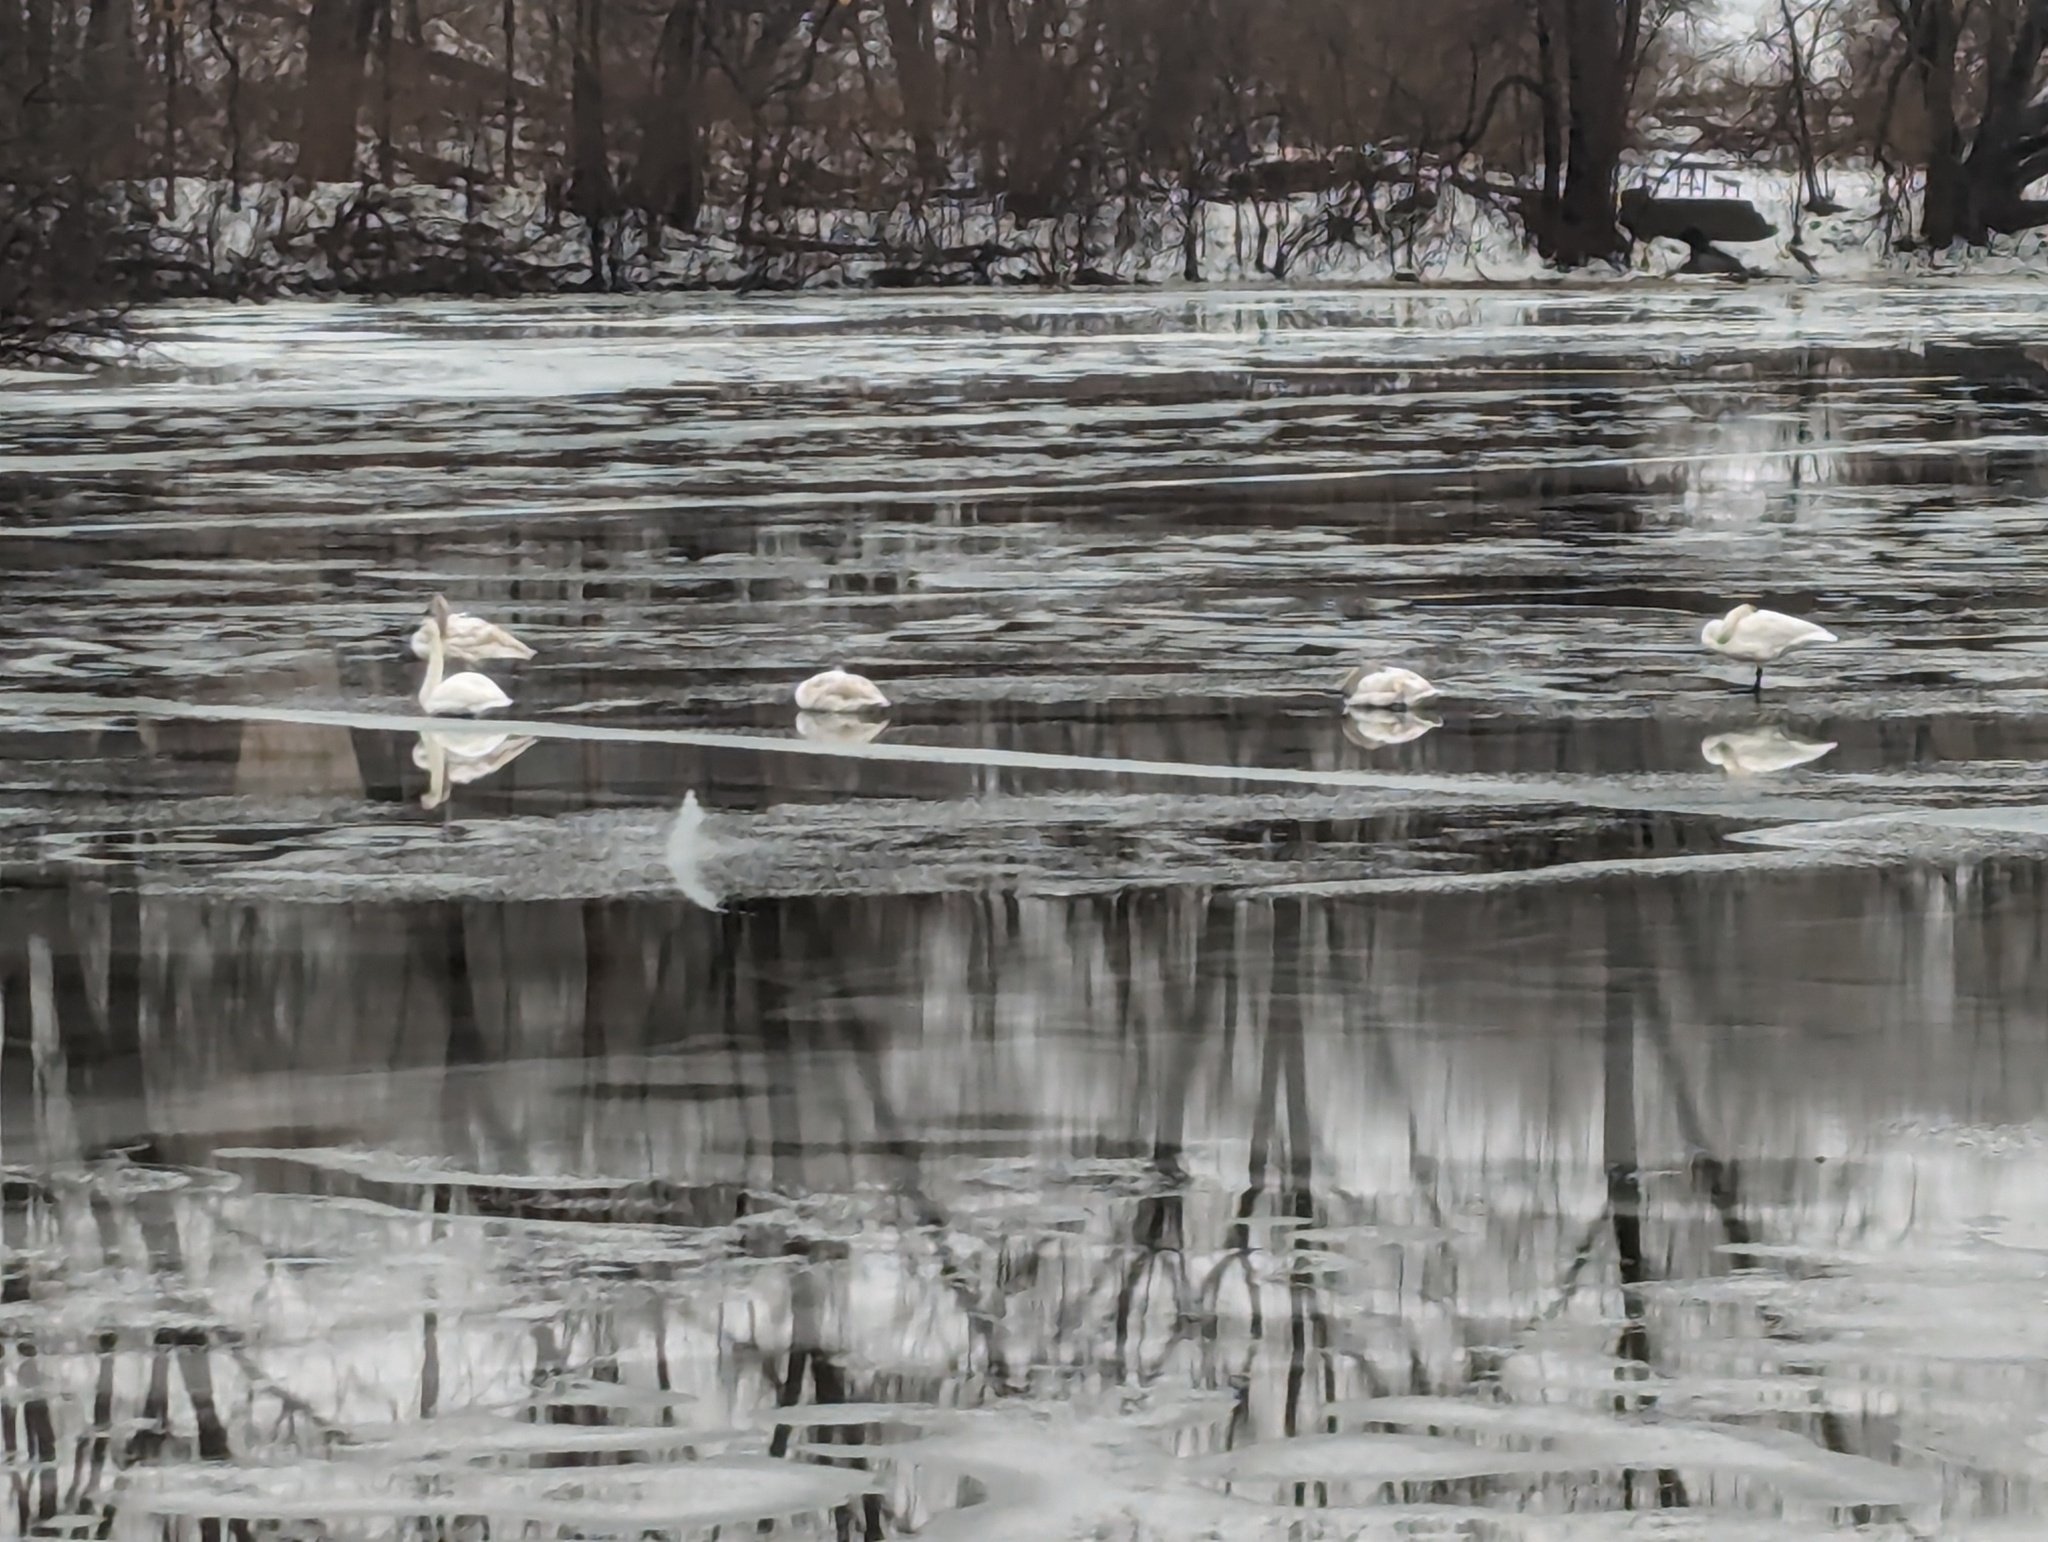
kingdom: Animalia
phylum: Chordata
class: Aves
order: Anseriformes
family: Anatidae
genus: Cygnus
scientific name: Cygnus buccinator
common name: Trumpeter swan
